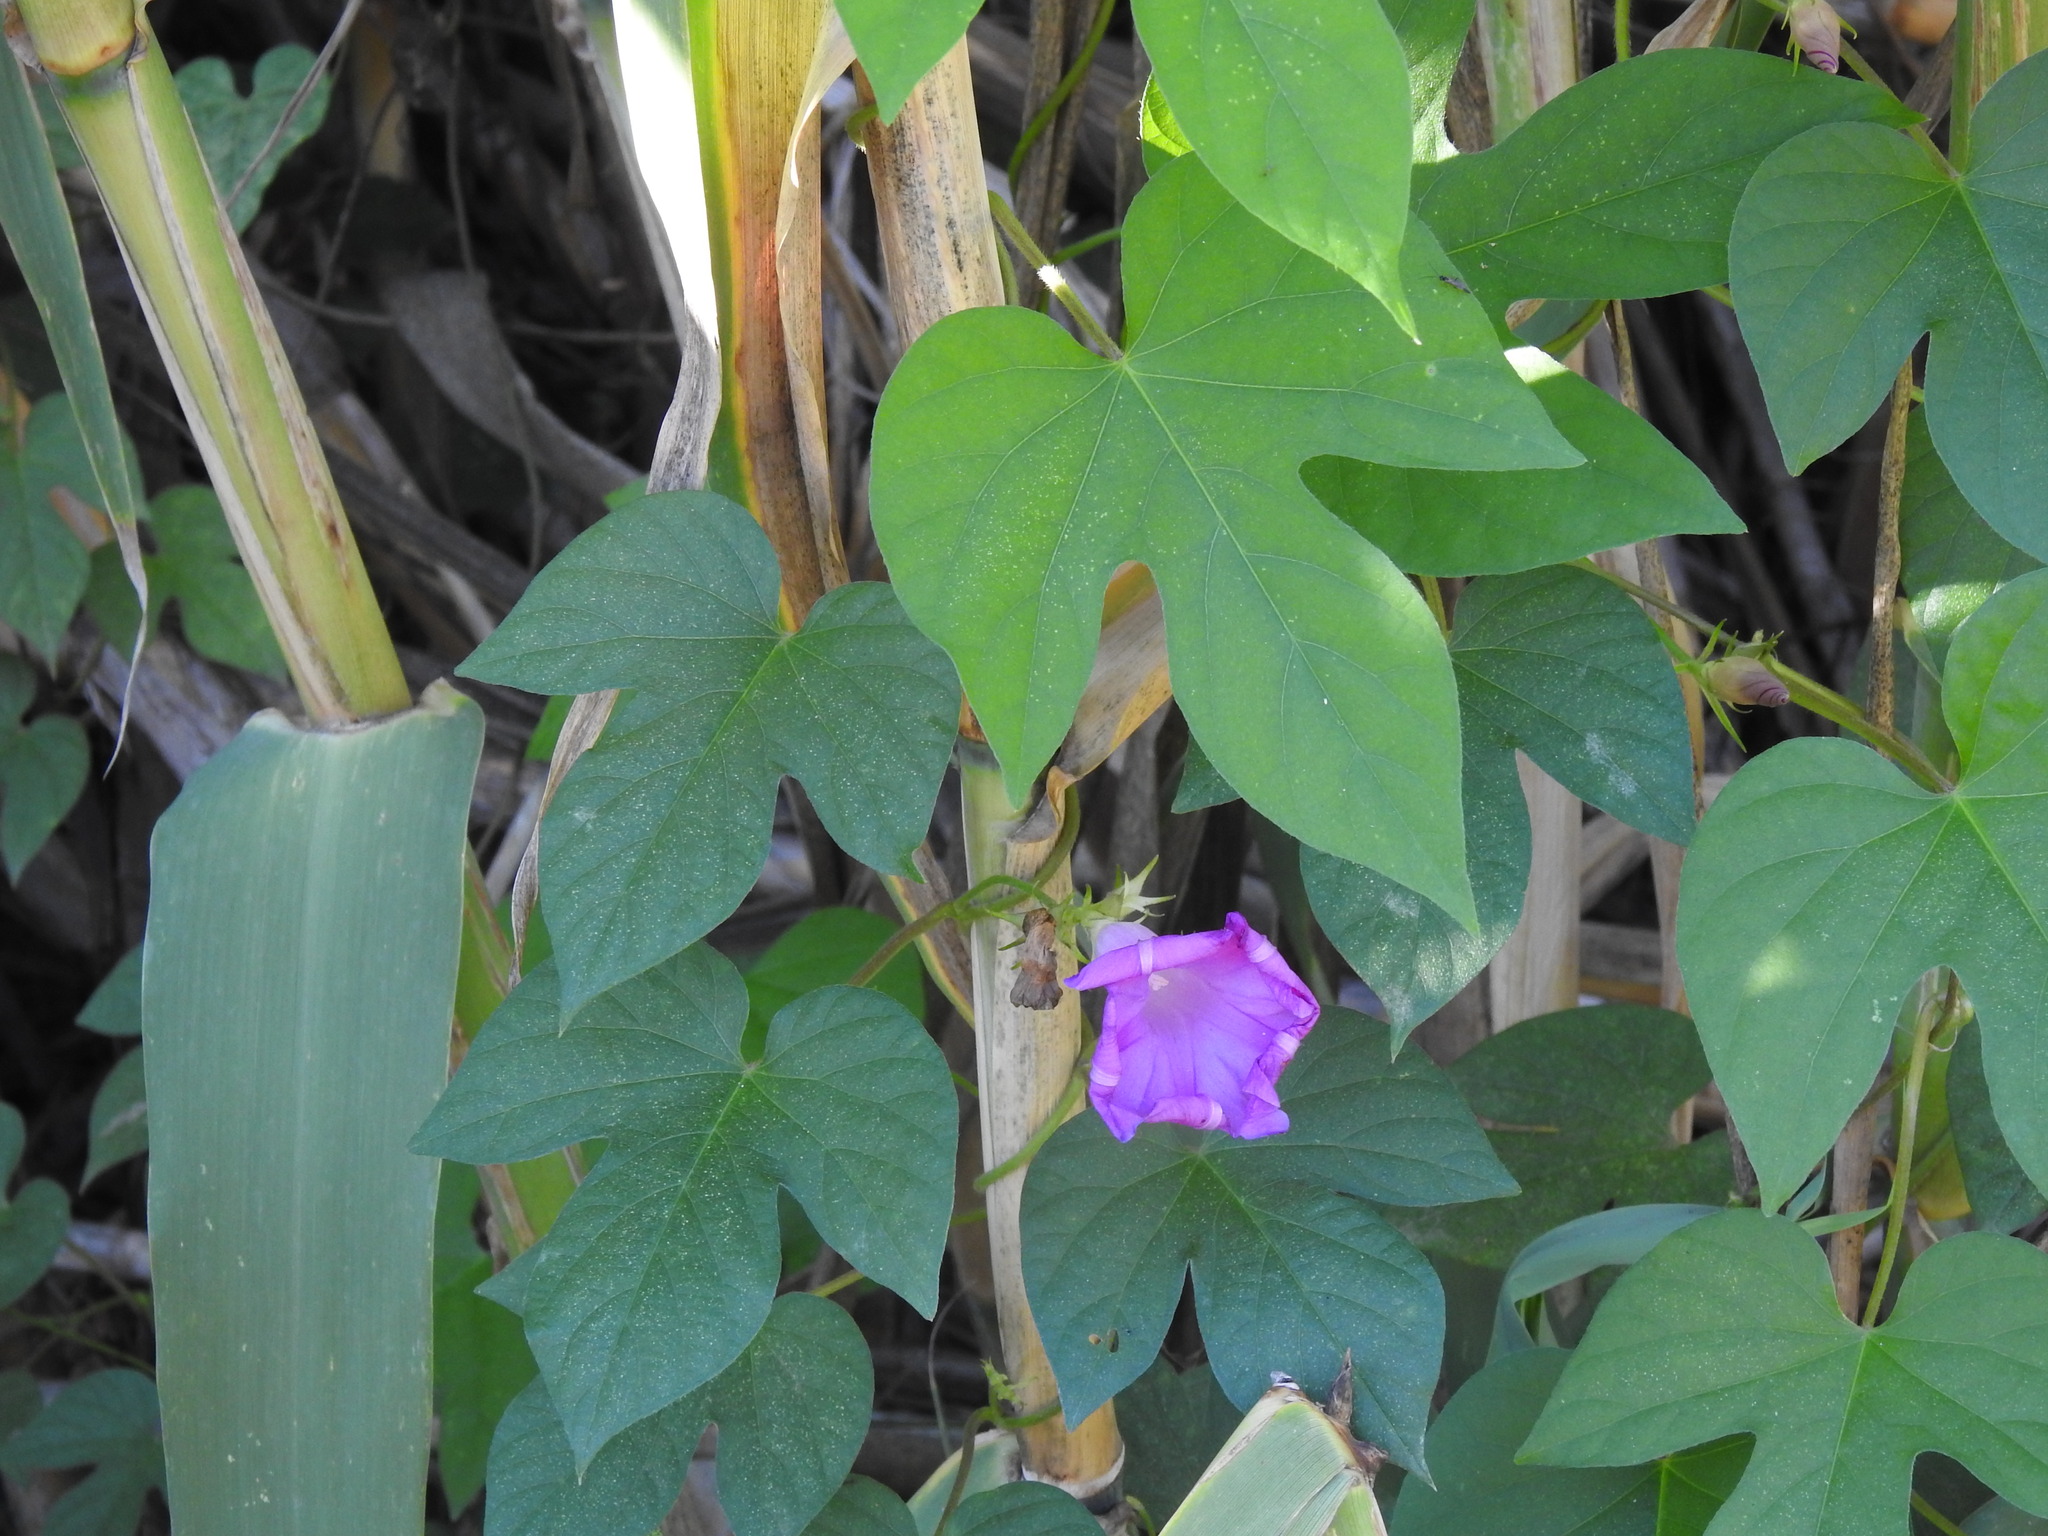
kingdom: Plantae
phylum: Tracheophyta
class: Magnoliopsida
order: Solanales
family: Convolvulaceae
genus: Ipomoea
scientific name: Ipomoea indica
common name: Blue dawnflower
